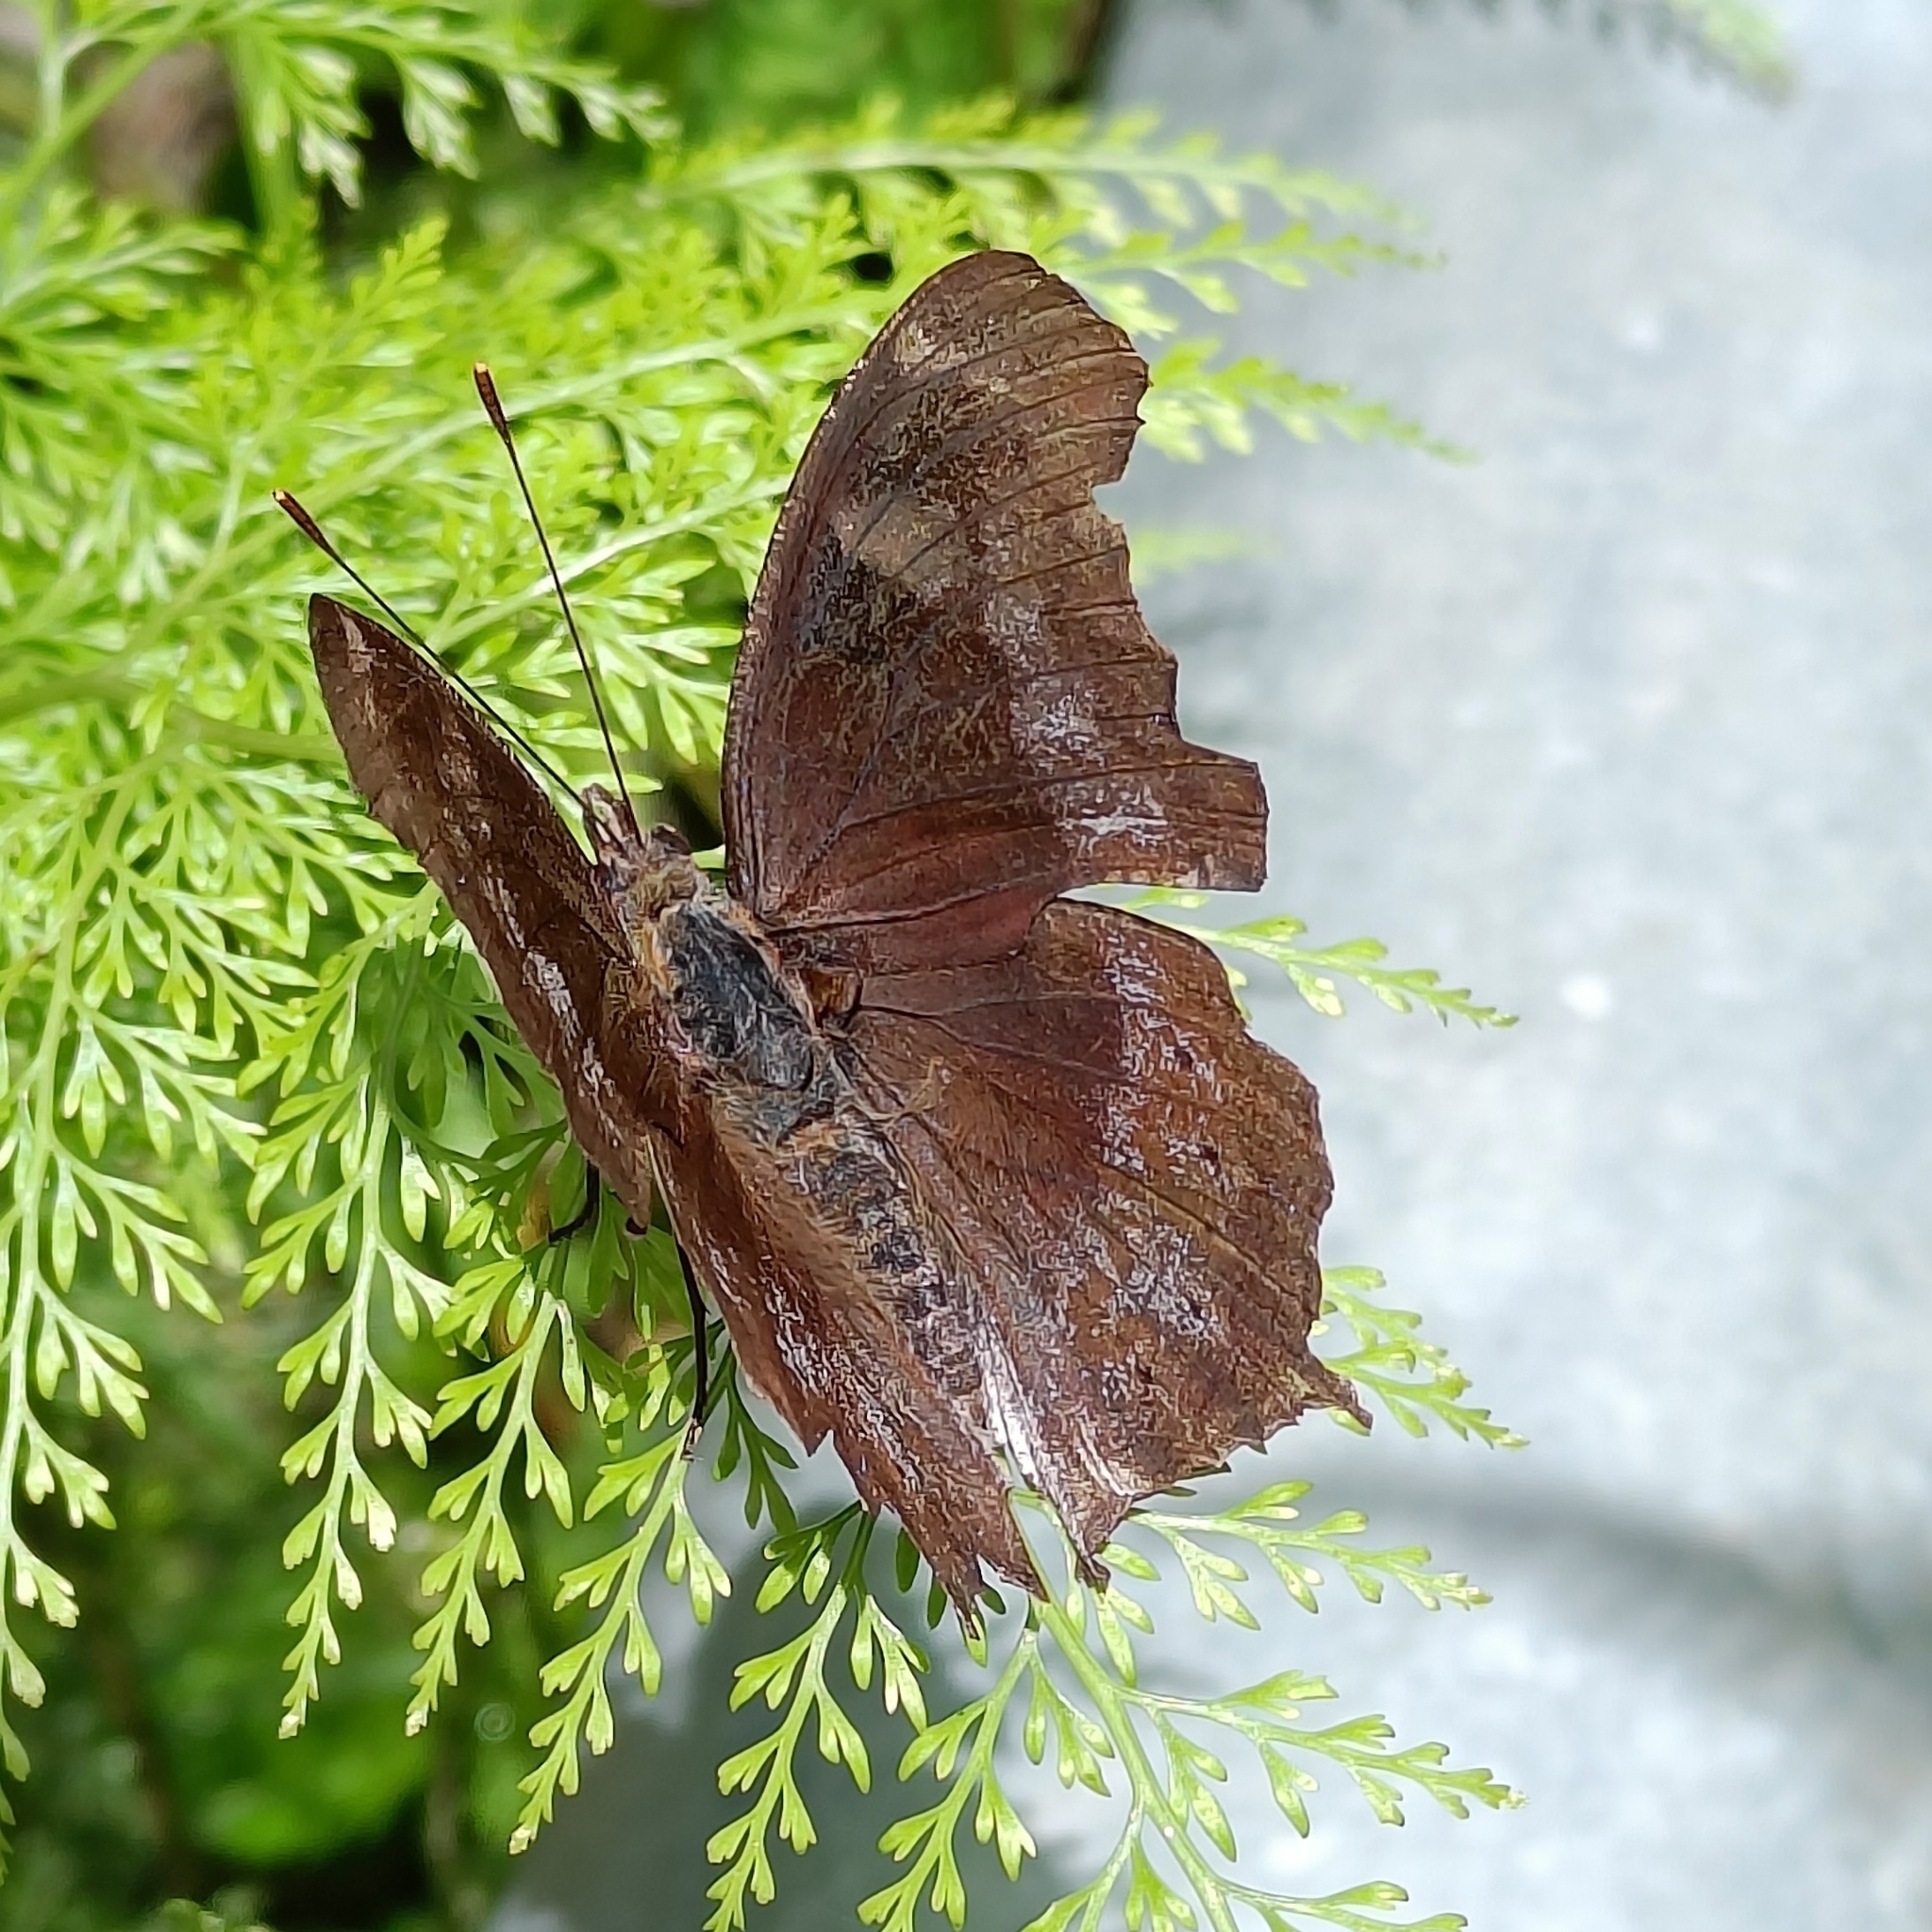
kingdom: Animalia
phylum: Arthropoda
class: Insecta
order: Lepidoptera
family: Nymphalidae
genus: Vanessa
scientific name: Vanessa Kaniska canace
